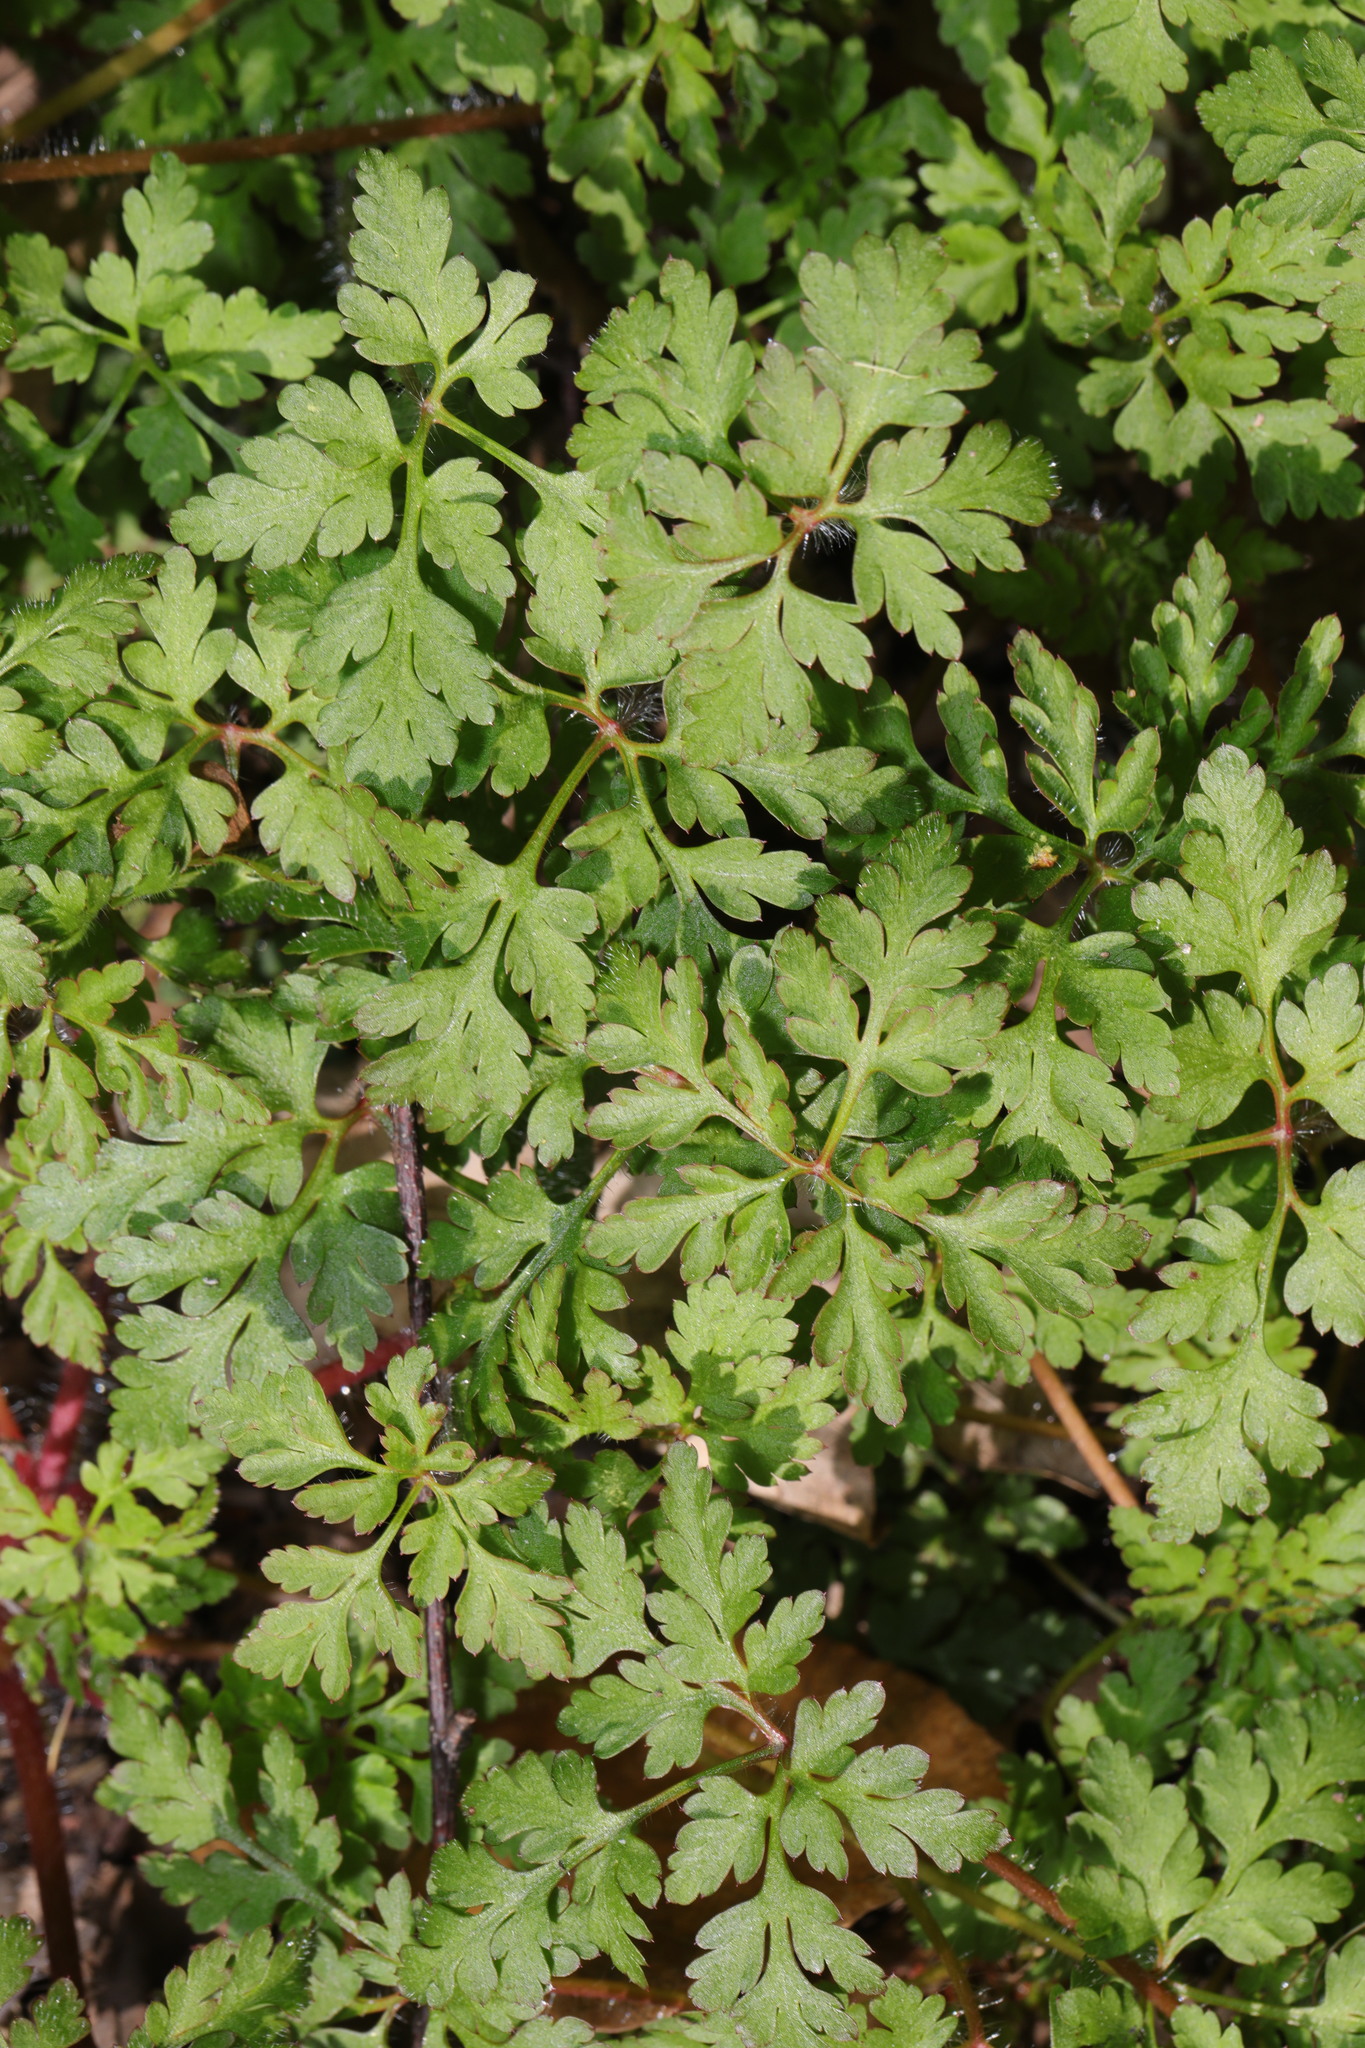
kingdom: Plantae
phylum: Tracheophyta
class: Magnoliopsida
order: Geraniales
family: Geraniaceae
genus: Geranium
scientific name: Geranium robertianum
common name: Herb-robert
